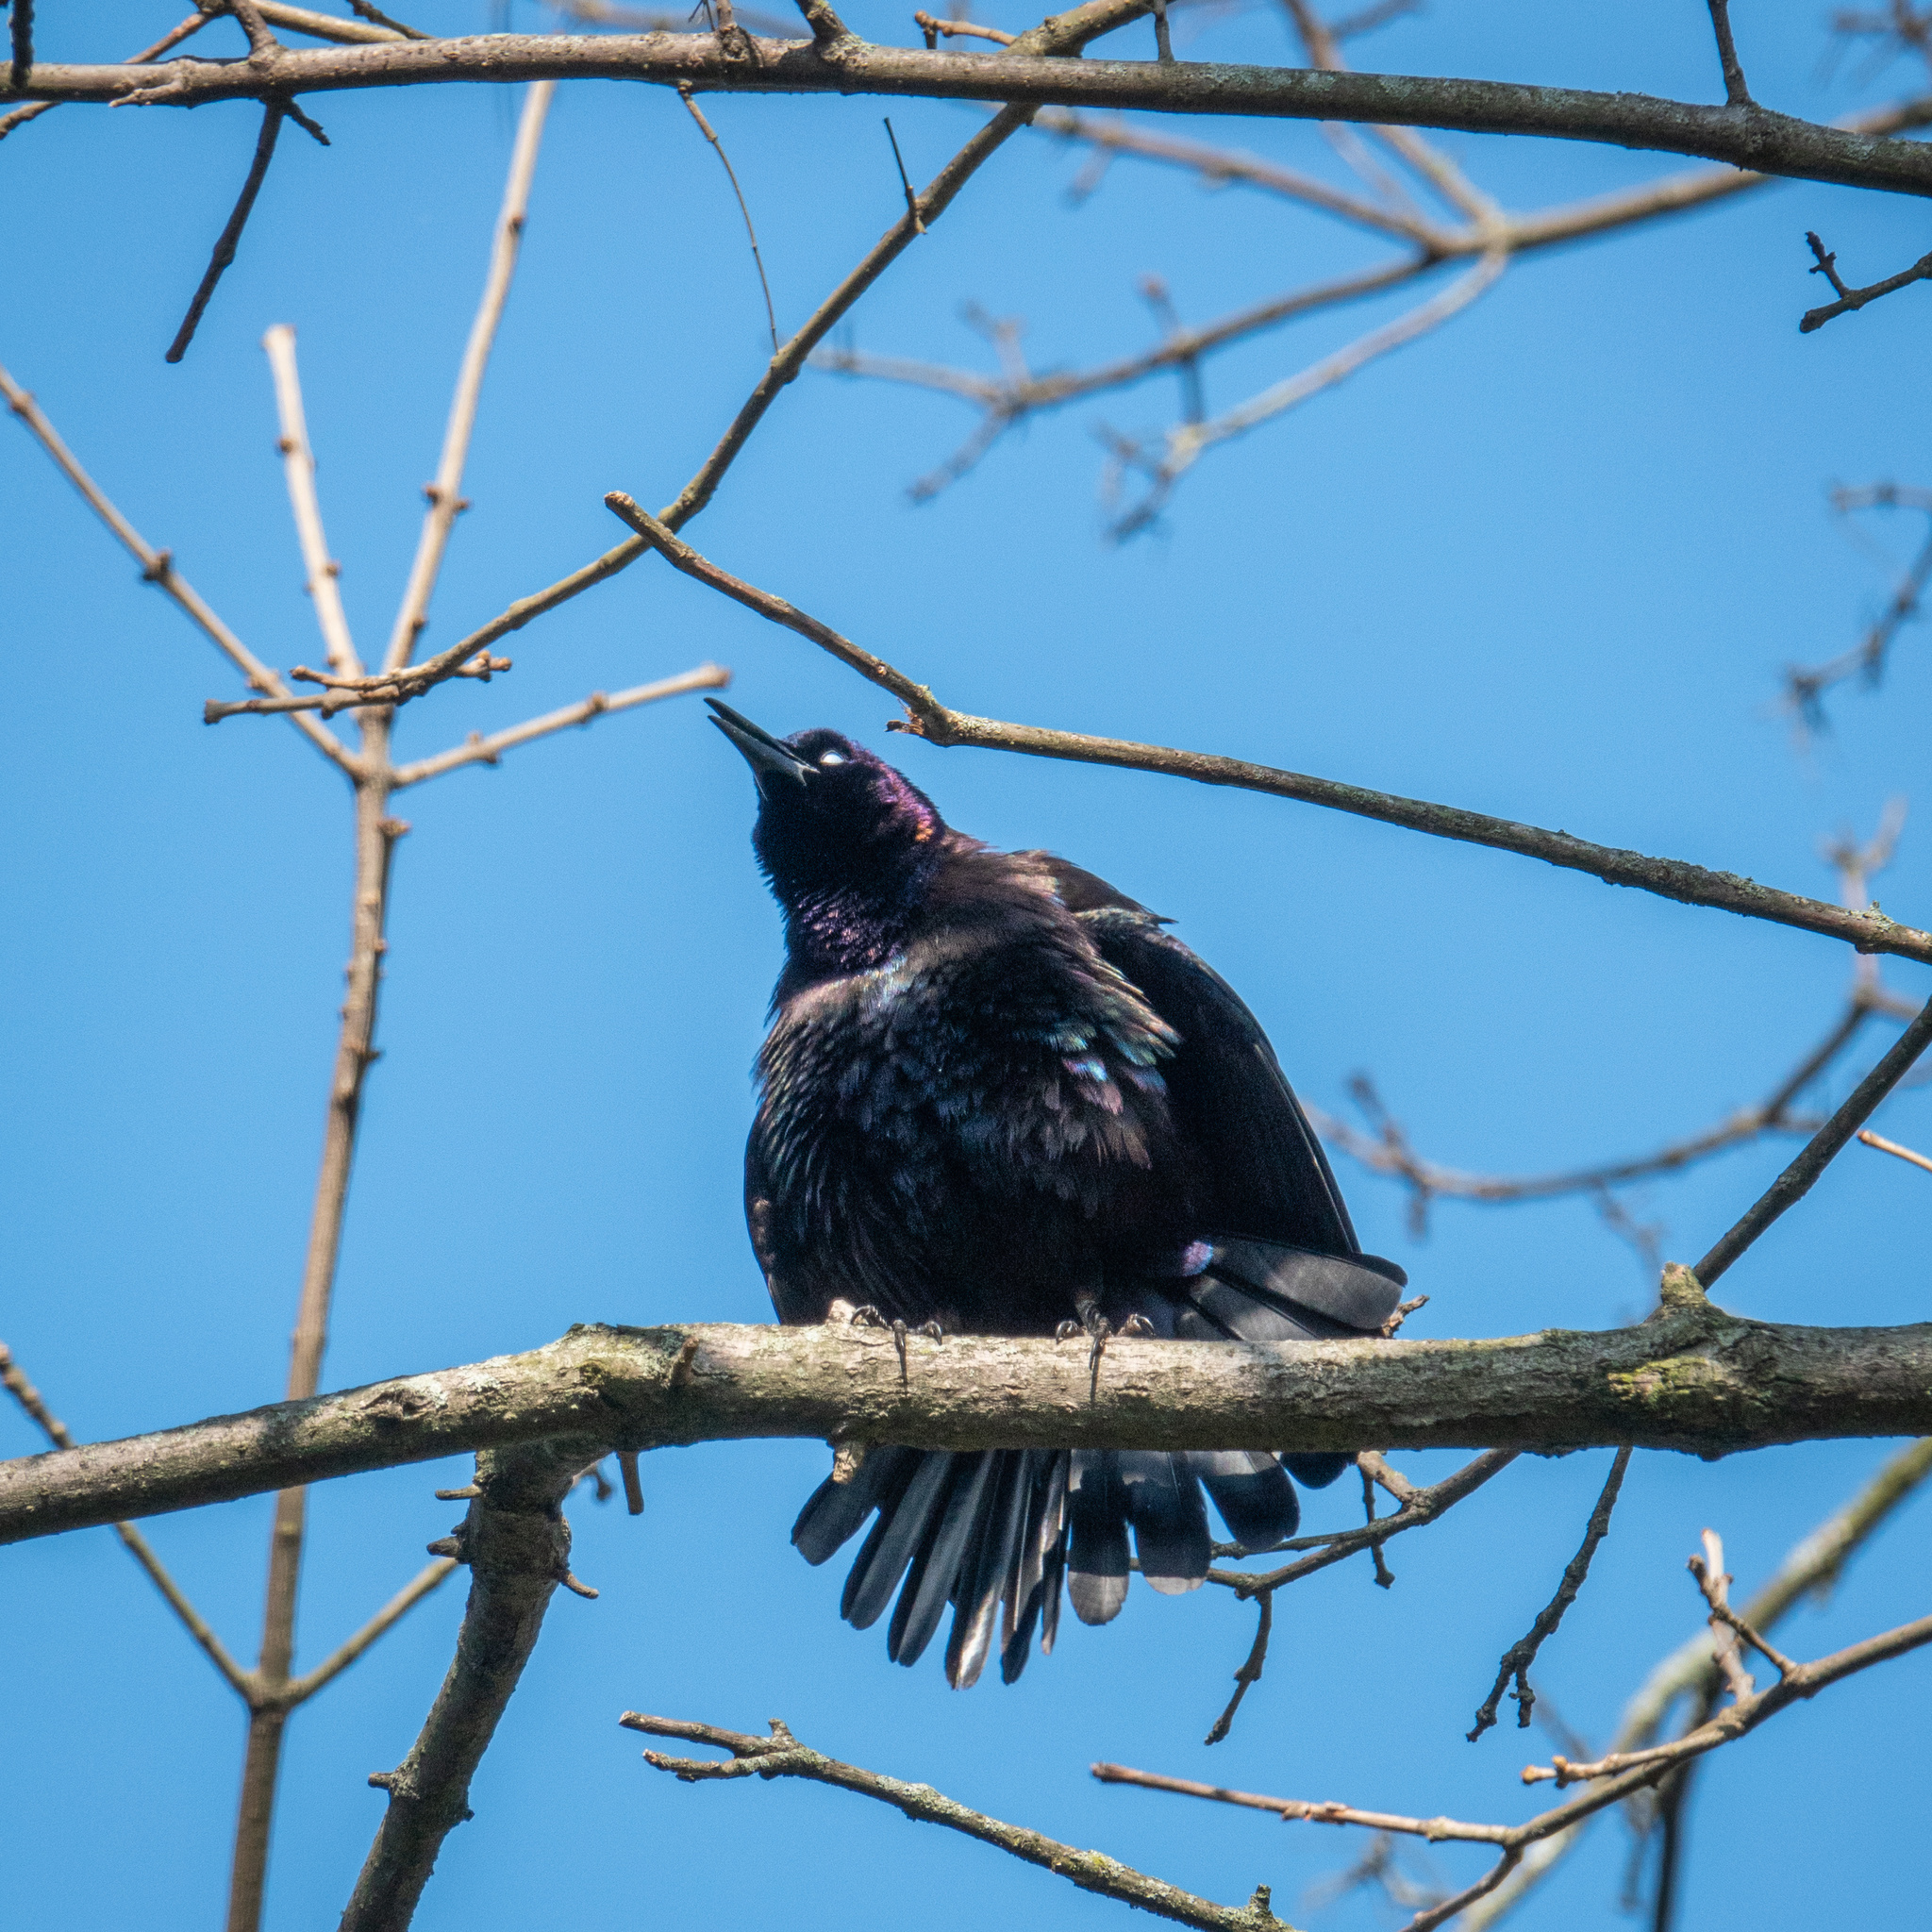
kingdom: Animalia
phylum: Chordata
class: Aves
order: Passeriformes
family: Icteridae
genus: Quiscalus
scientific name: Quiscalus quiscula
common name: Common grackle
